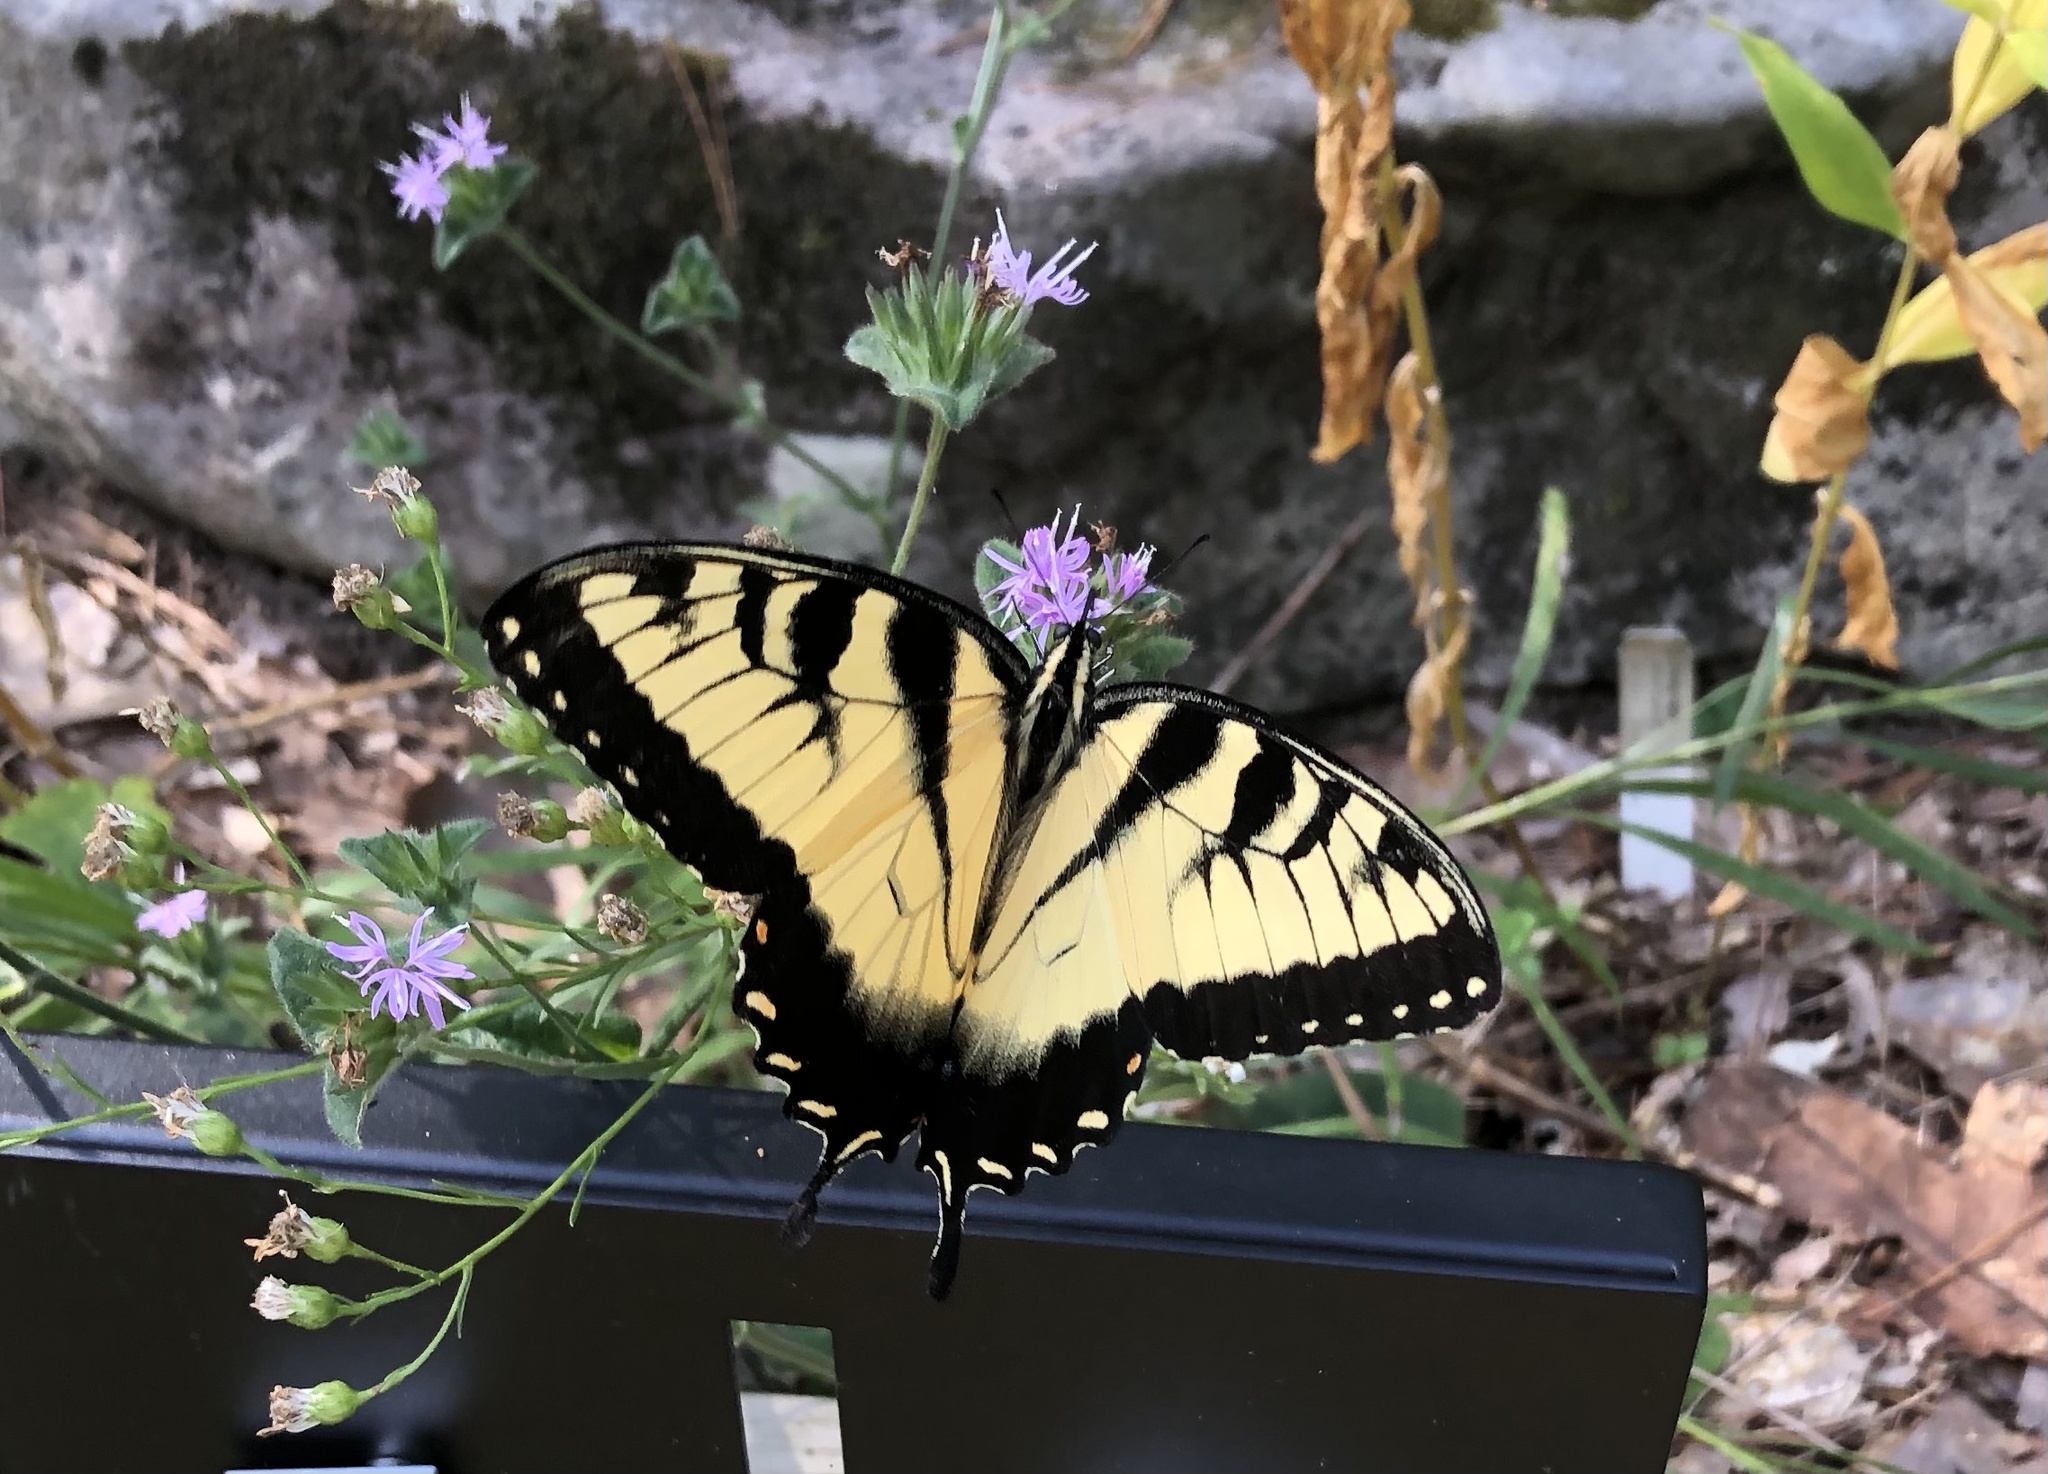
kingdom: Animalia
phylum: Arthropoda
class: Insecta
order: Lepidoptera
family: Papilionidae
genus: Papilio
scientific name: Papilio glaucus
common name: Tiger swallowtail
